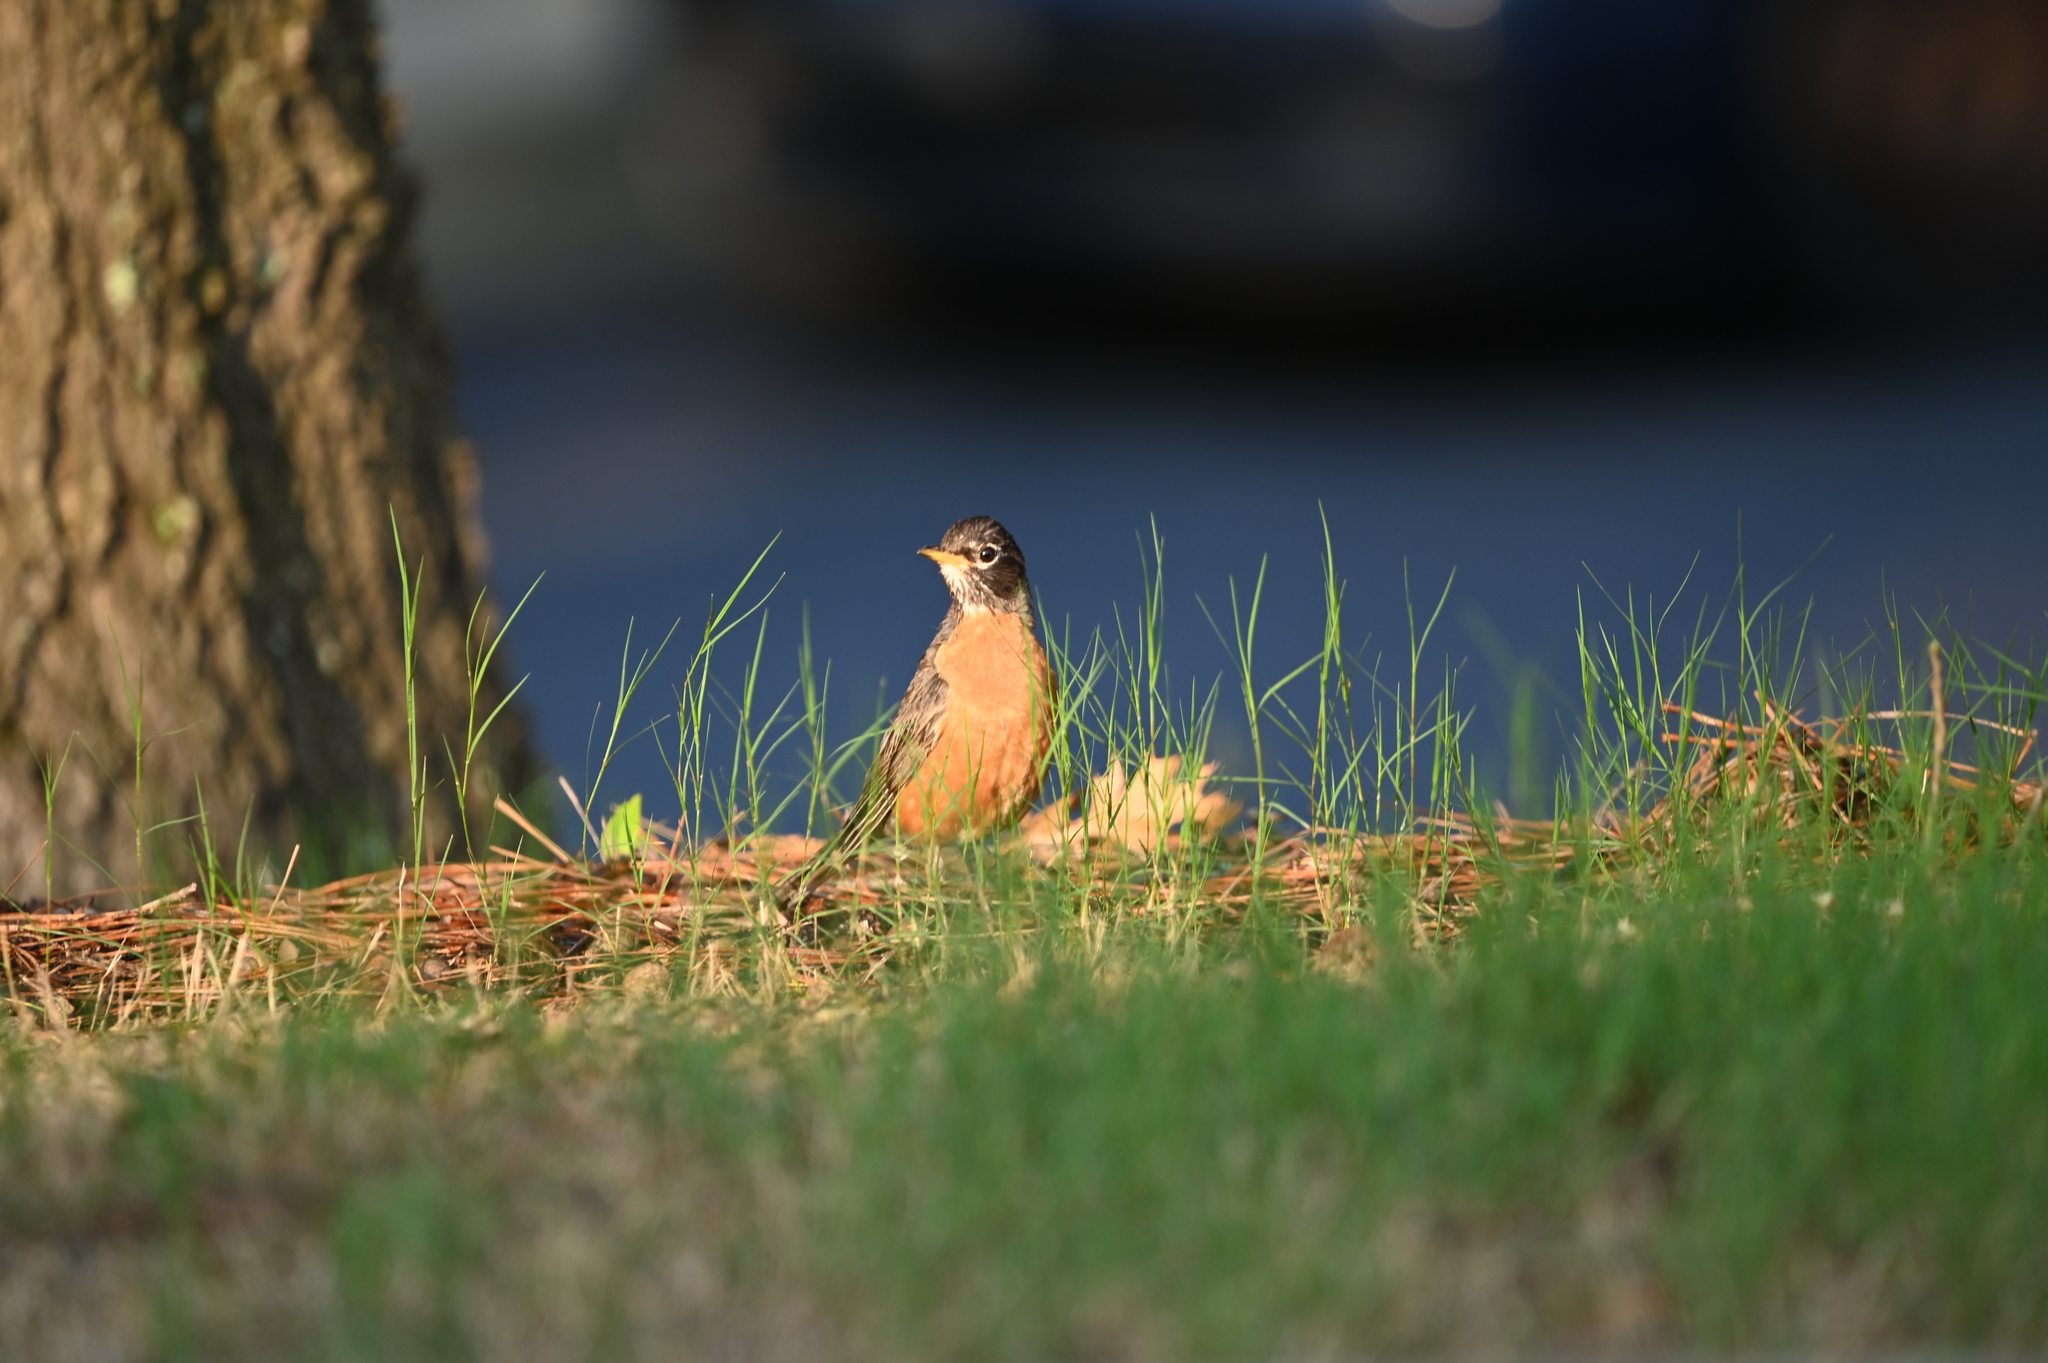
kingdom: Animalia
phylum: Chordata
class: Aves
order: Passeriformes
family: Turdidae
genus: Turdus
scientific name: Turdus migratorius
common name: American robin
